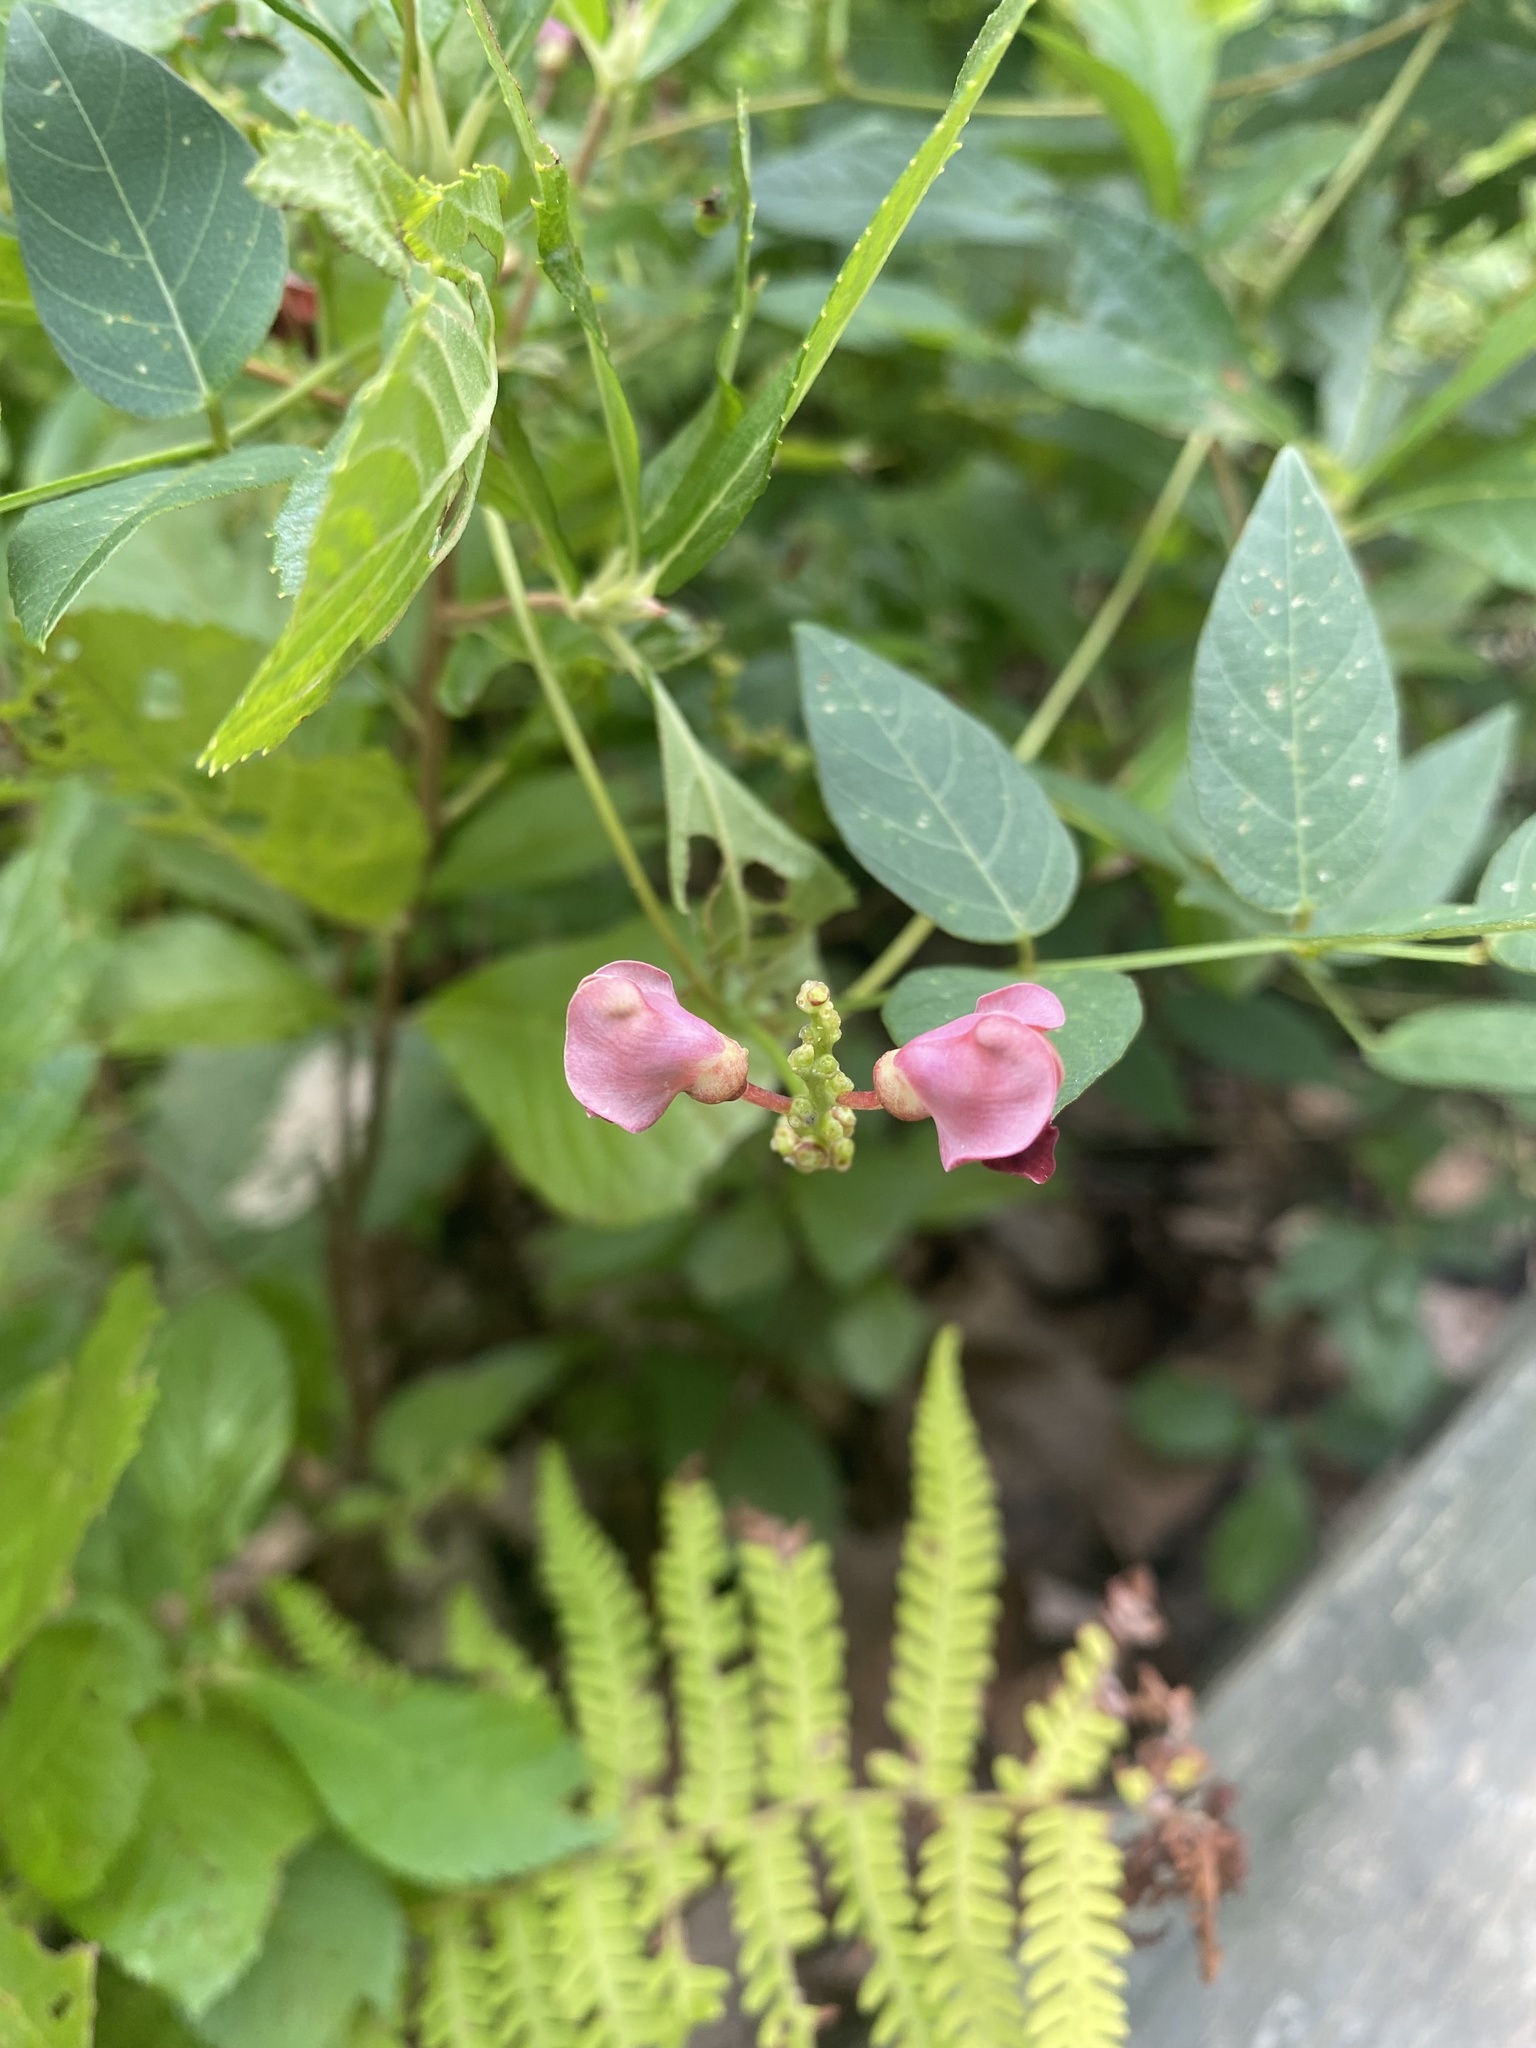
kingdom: Plantae
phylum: Tracheophyta
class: Magnoliopsida
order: Fabales
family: Fabaceae
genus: Apios
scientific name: Apios americana
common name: American potato-bean
